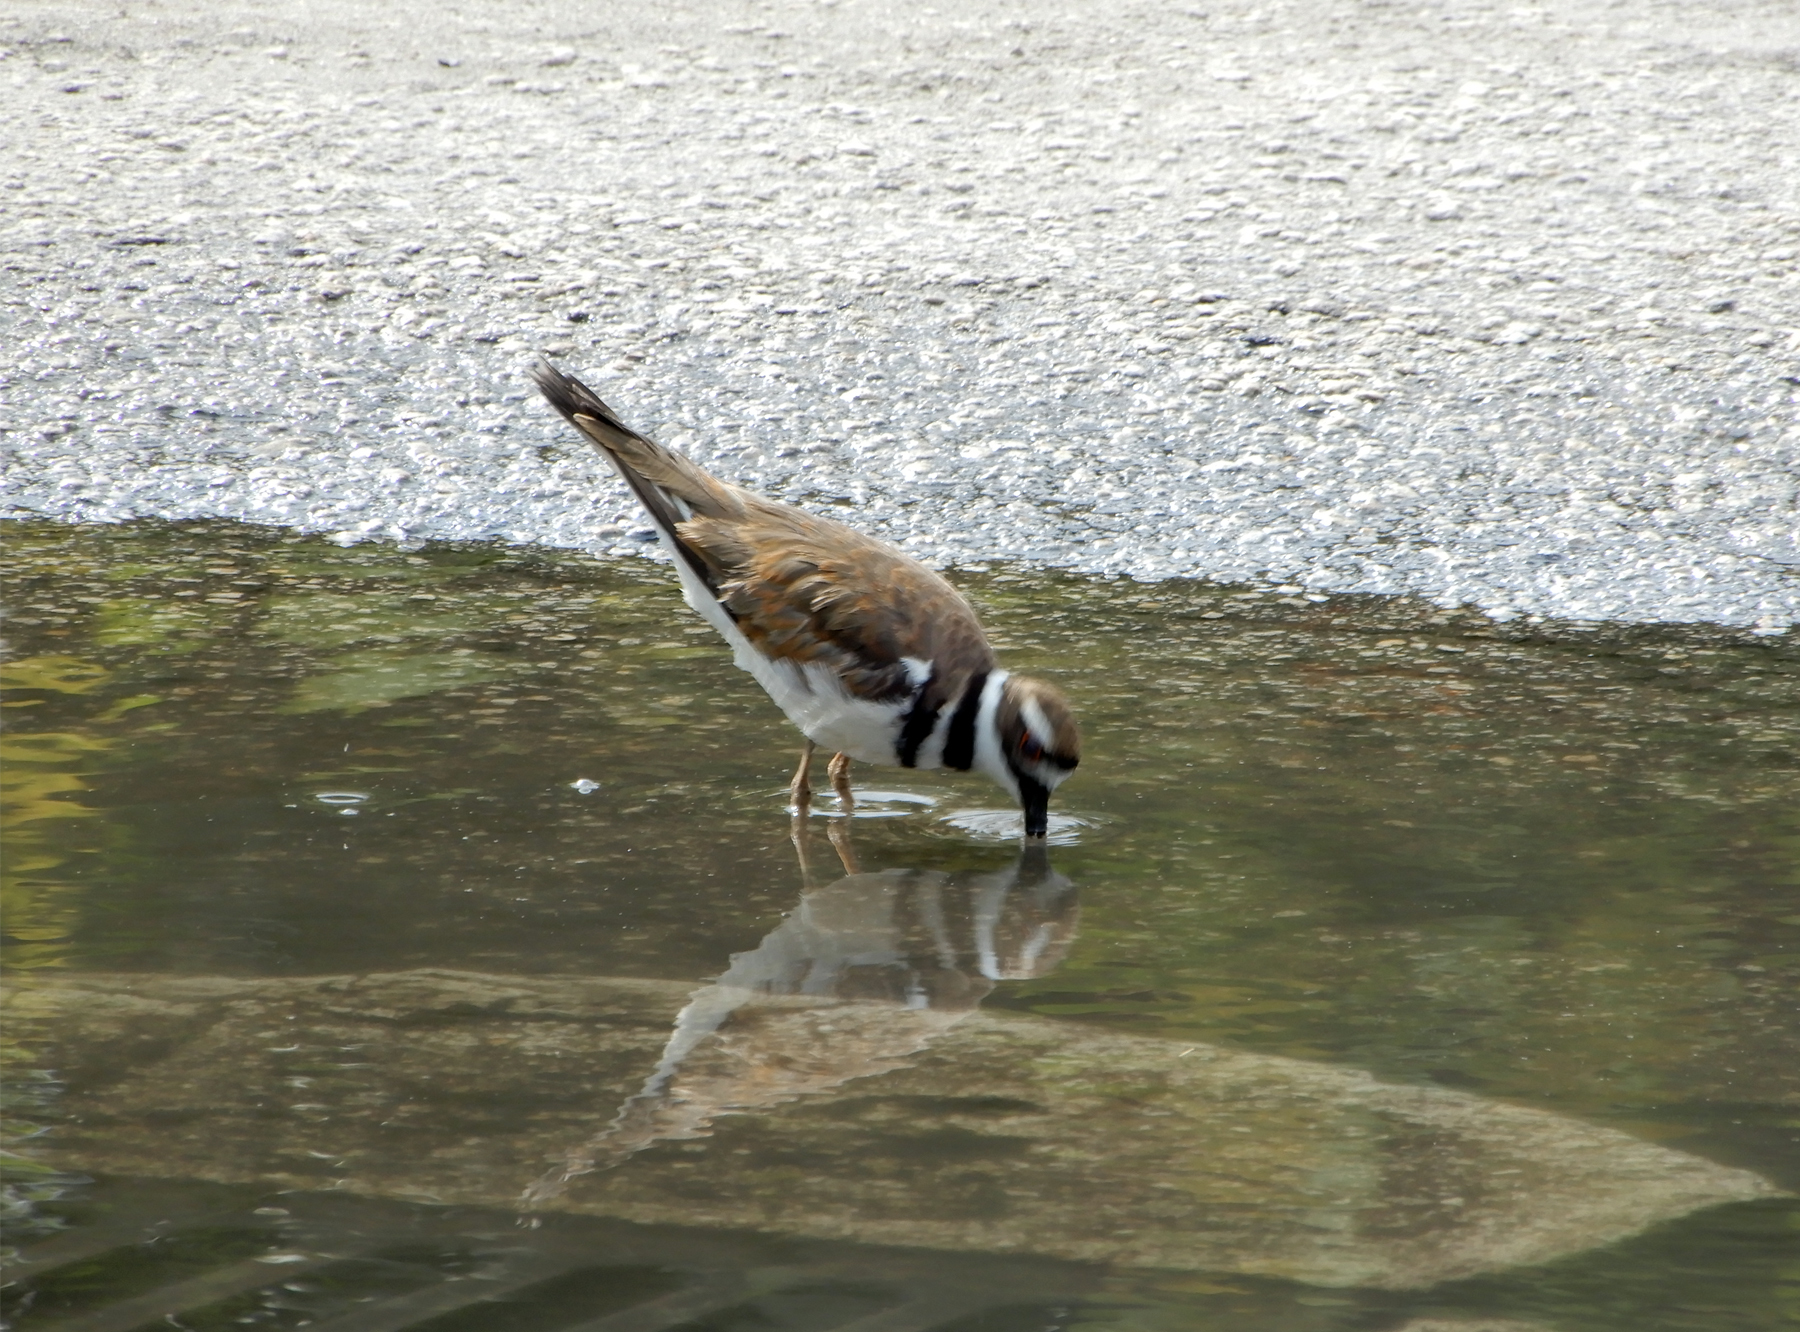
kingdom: Animalia
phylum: Chordata
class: Aves
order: Charadriiformes
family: Charadriidae
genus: Charadrius
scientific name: Charadrius vociferus
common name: Killdeer
